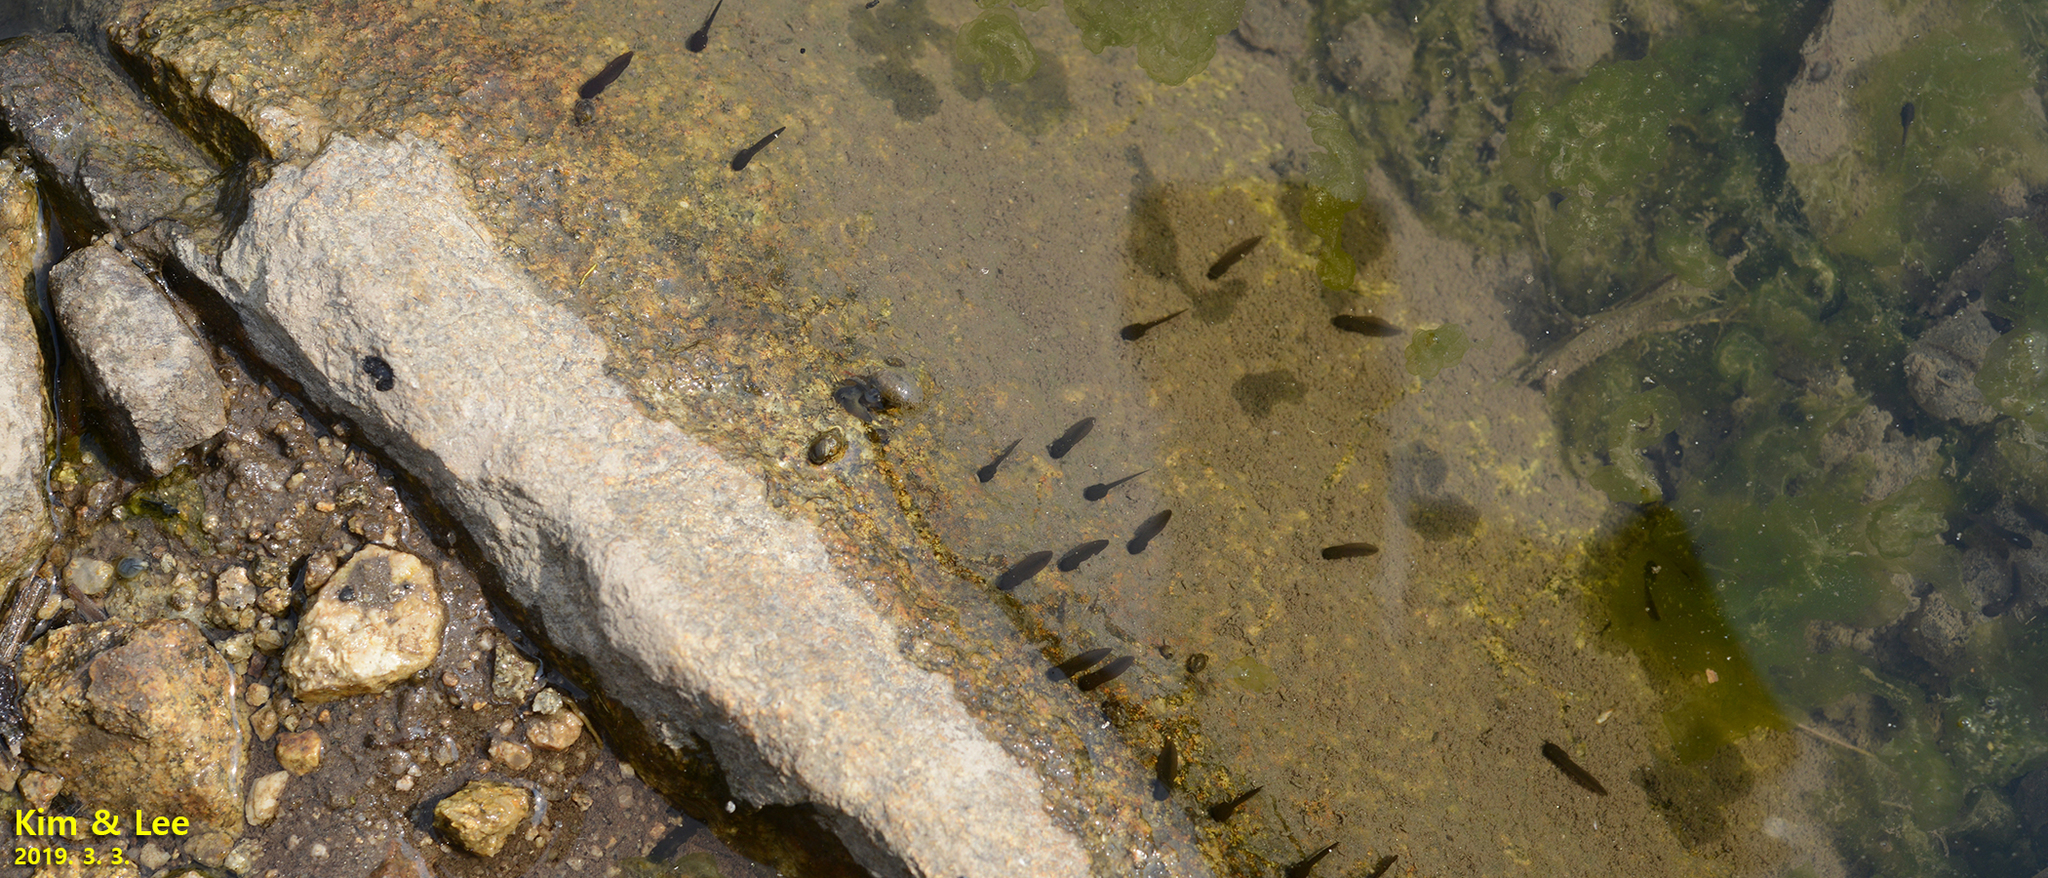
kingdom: Animalia
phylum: Chordata
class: Amphibia
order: Anura
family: Ranidae
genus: Rana
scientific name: Rana uenoi
